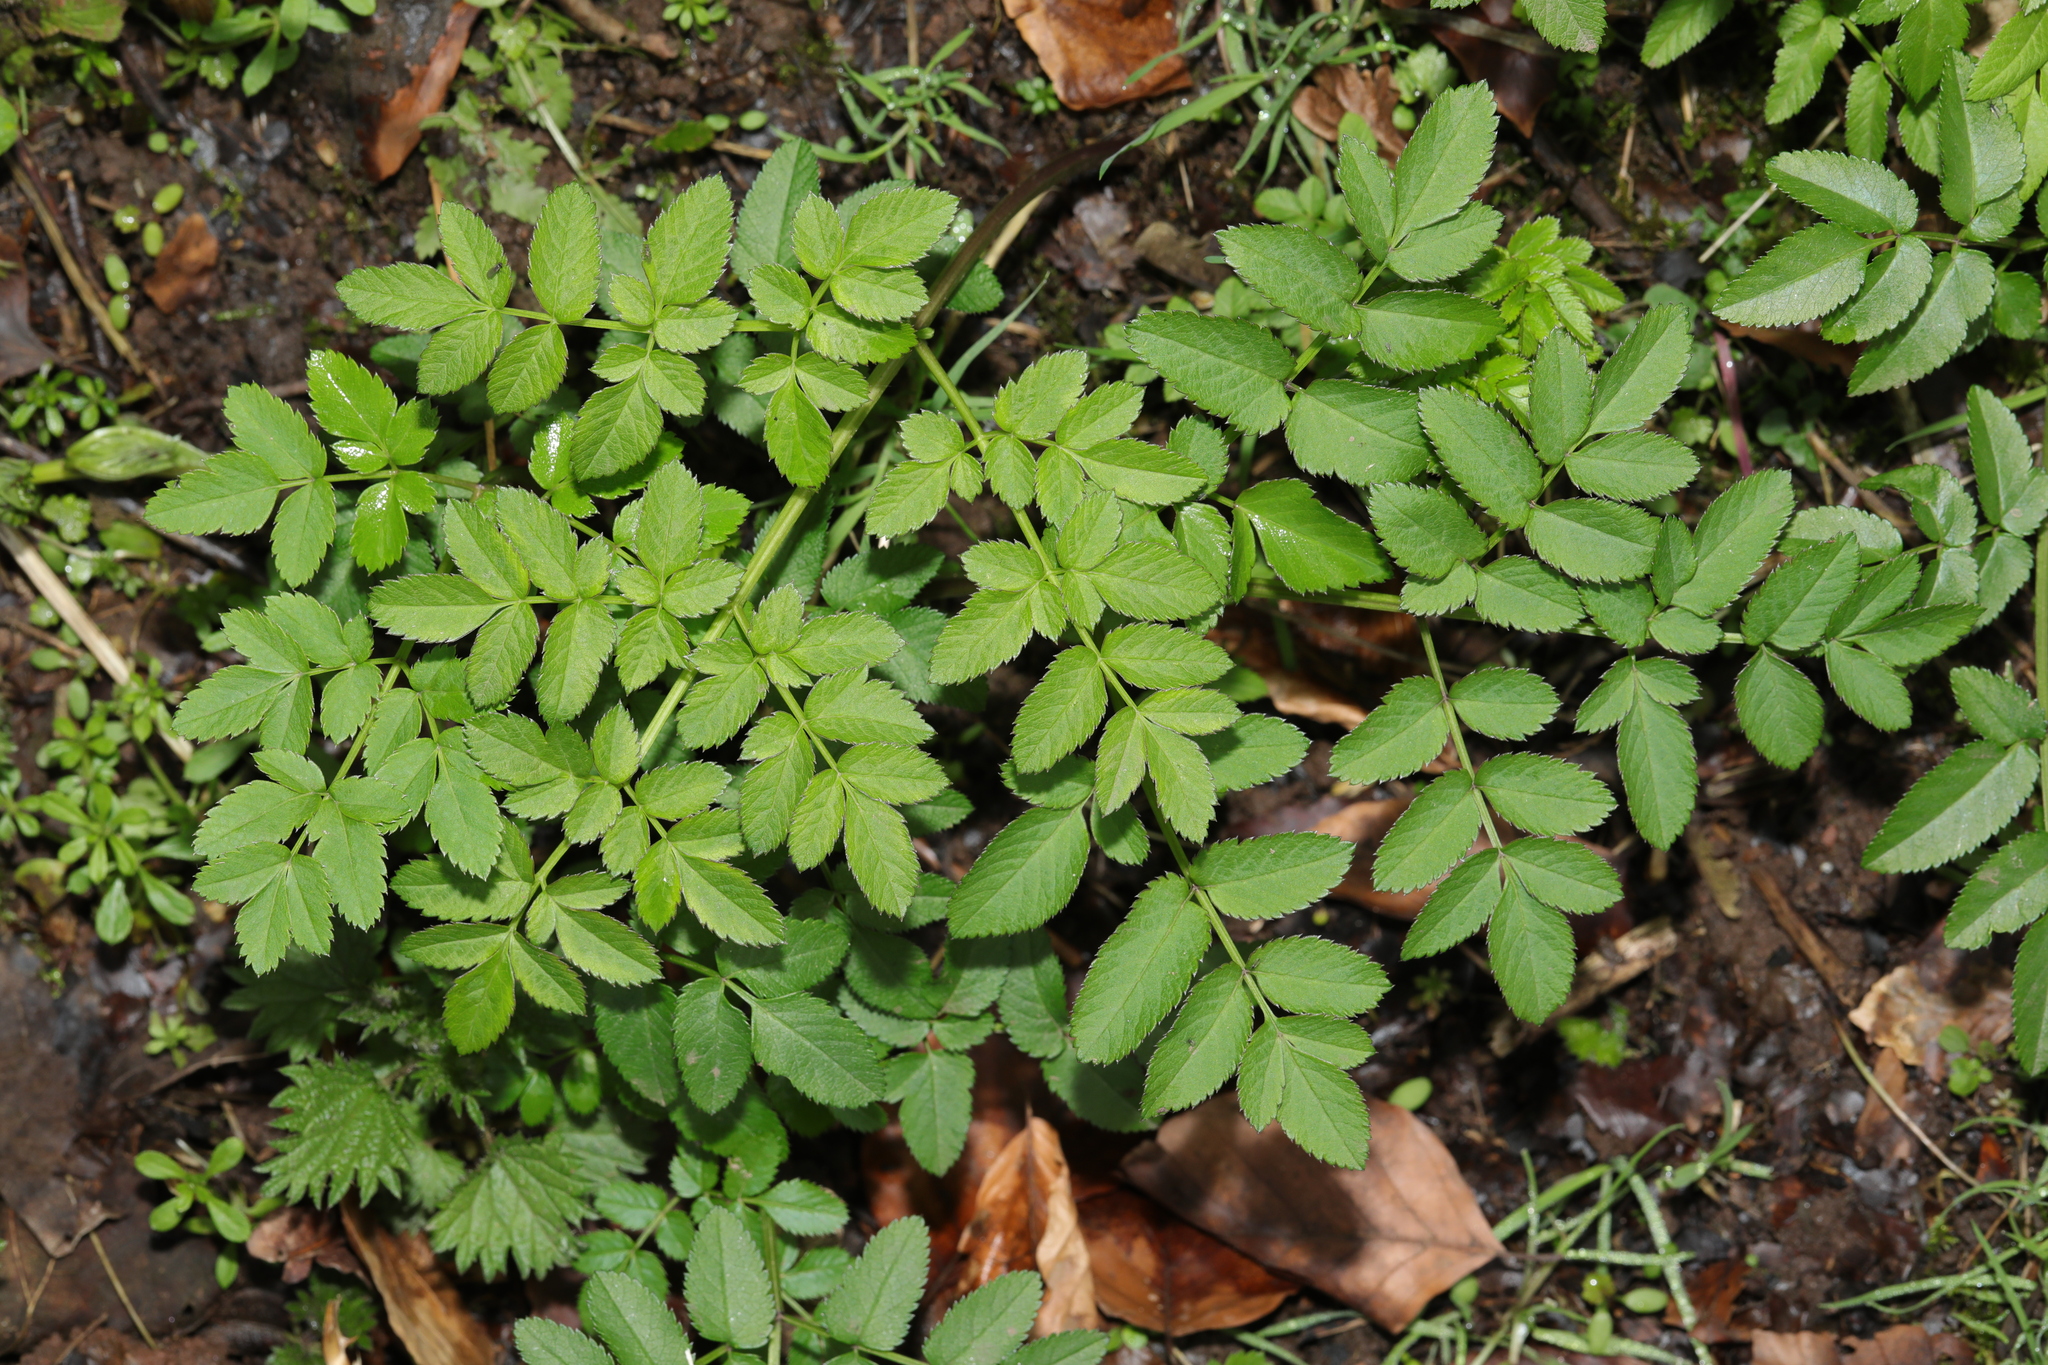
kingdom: Plantae
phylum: Tracheophyta
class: Magnoliopsida
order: Apiales
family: Apiaceae
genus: Angelica
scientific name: Angelica sylvestris
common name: Wild angelica
